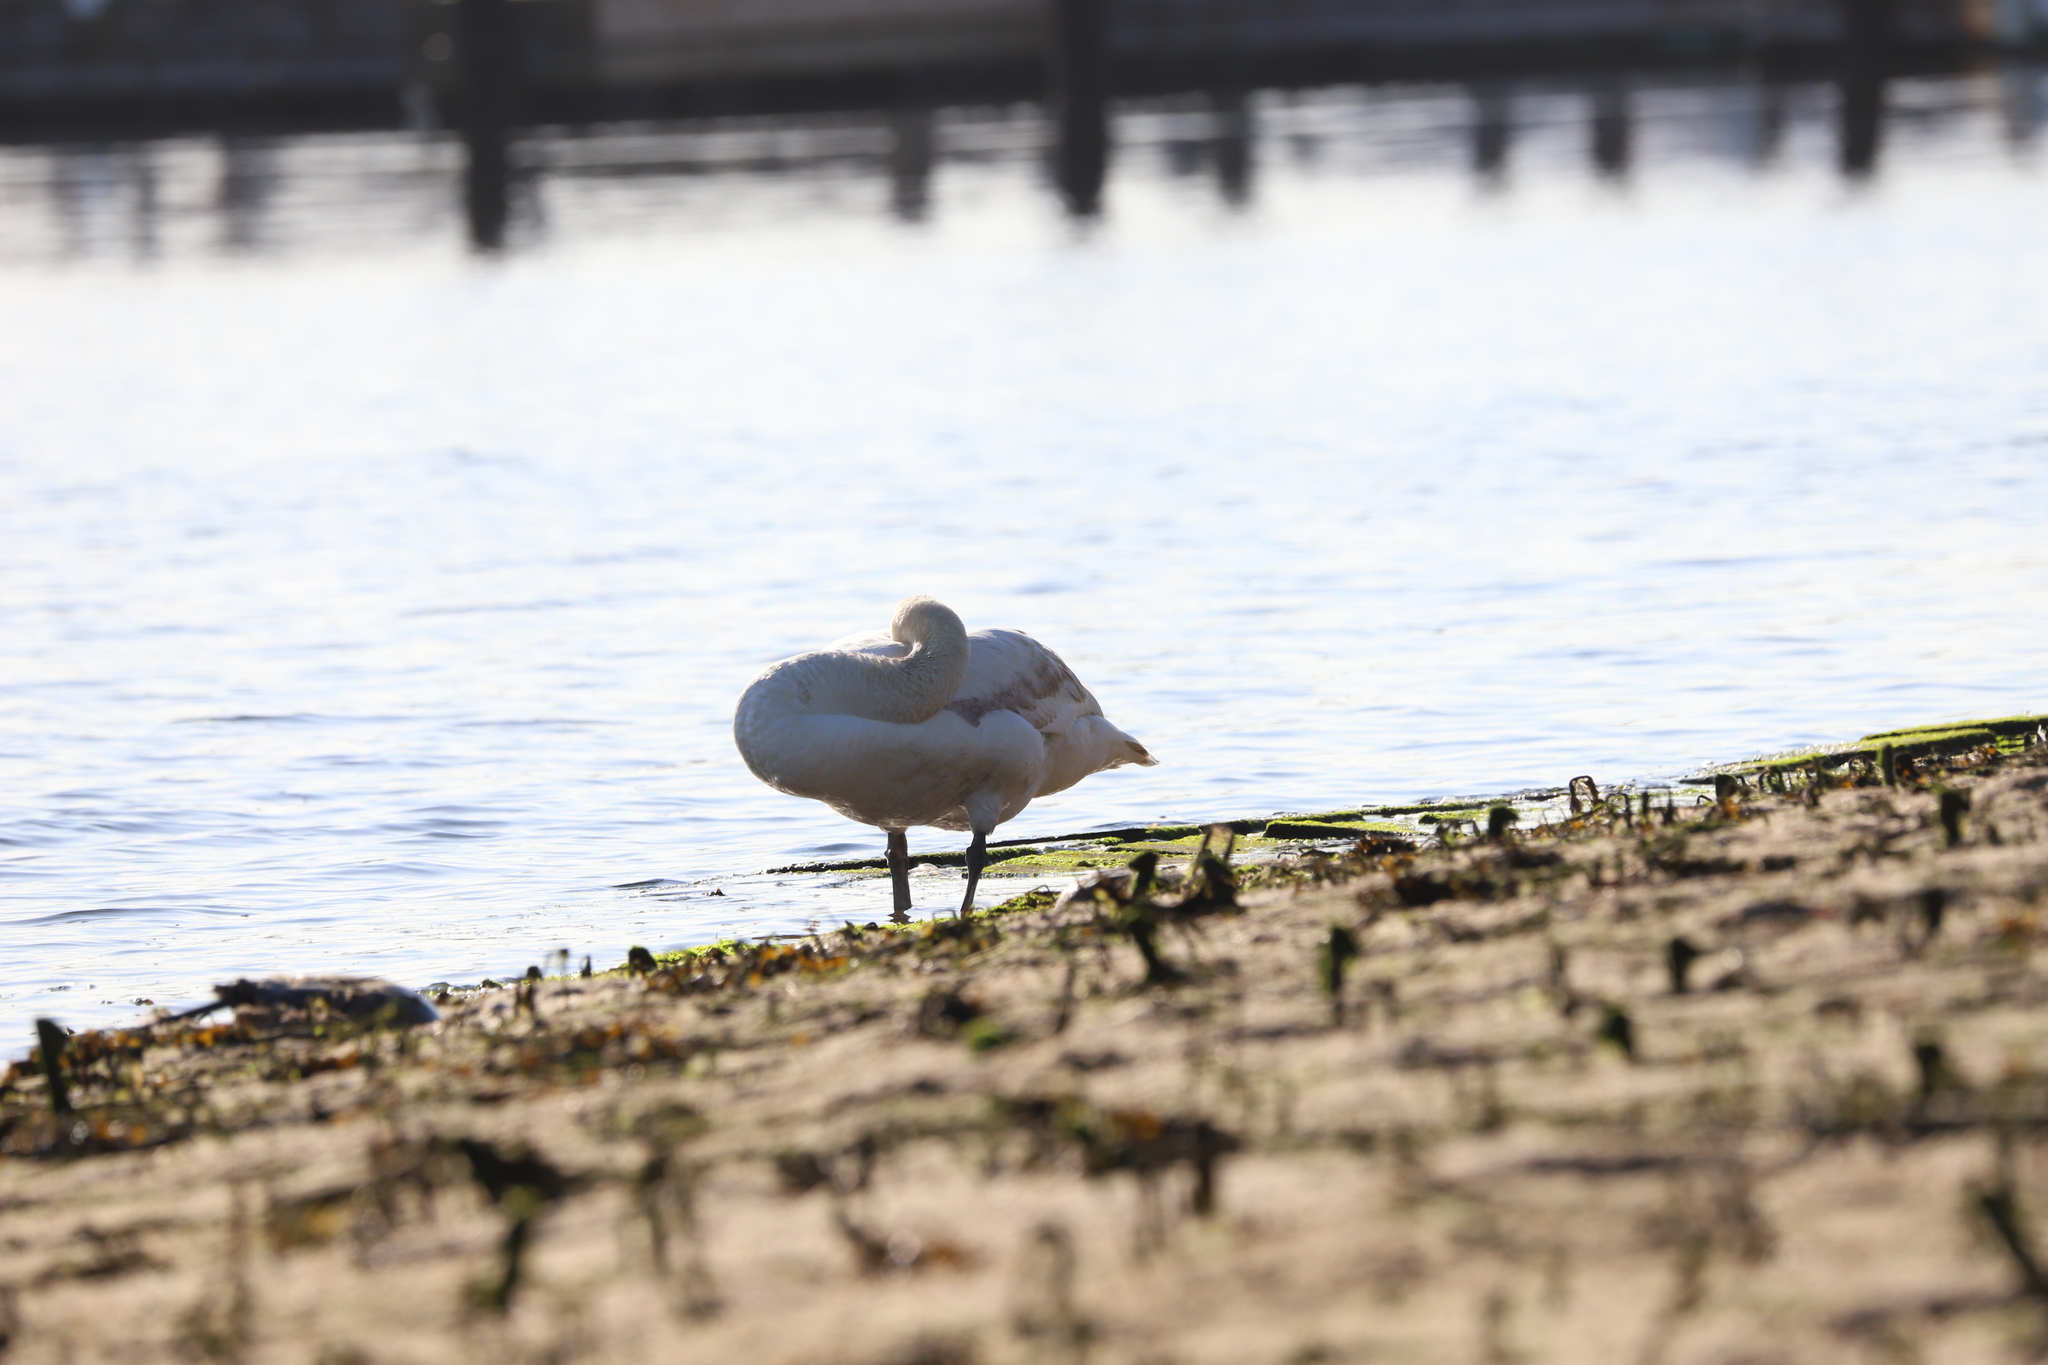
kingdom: Animalia
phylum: Chordata
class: Aves
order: Anseriformes
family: Anatidae
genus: Cygnus
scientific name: Cygnus olor
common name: Mute swan
